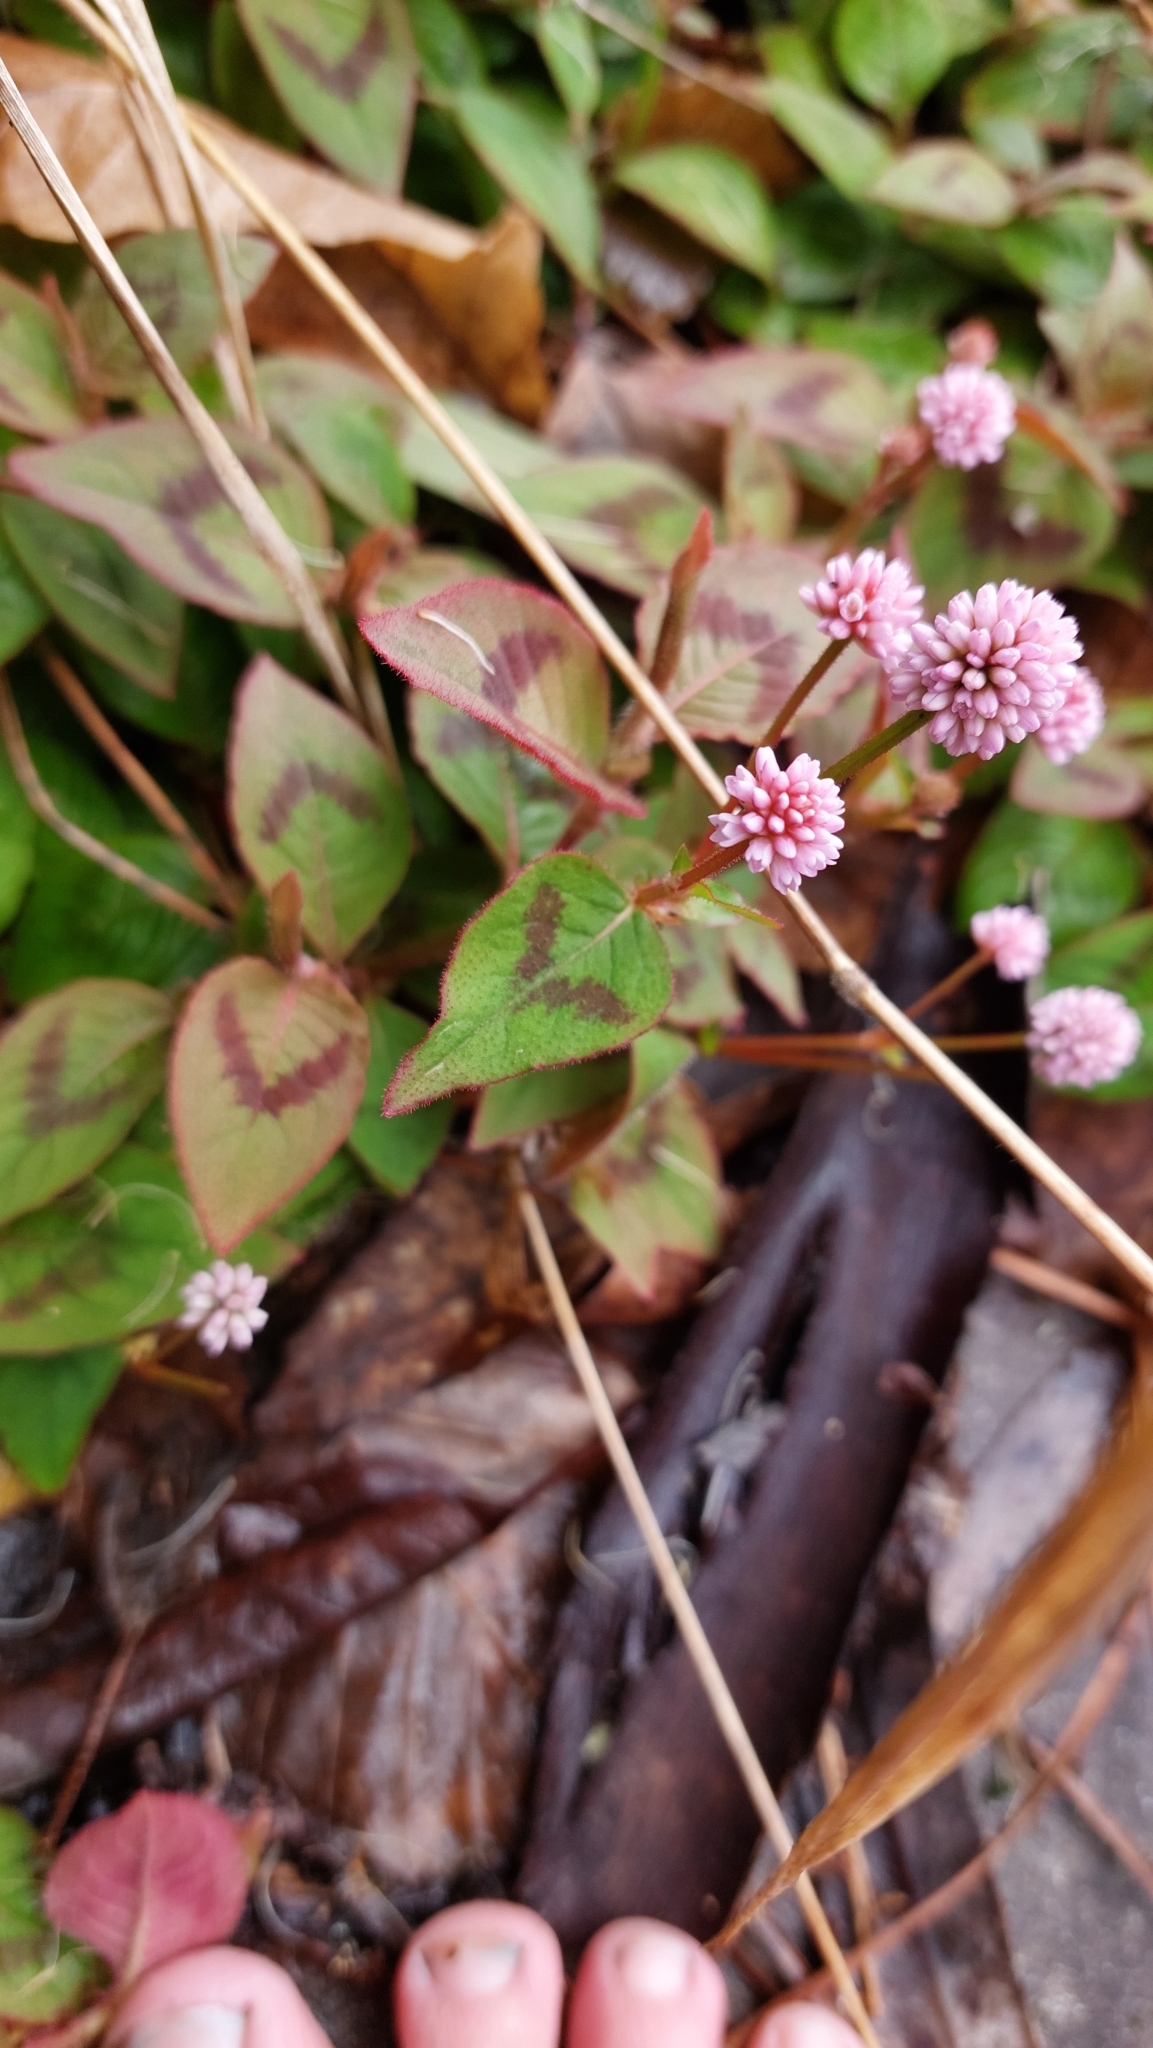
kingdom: Plantae
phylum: Tracheophyta
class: Magnoliopsida
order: Caryophyllales
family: Polygonaceae
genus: Persicaria
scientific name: Persicaria capitata
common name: Pinkhead smartweed
